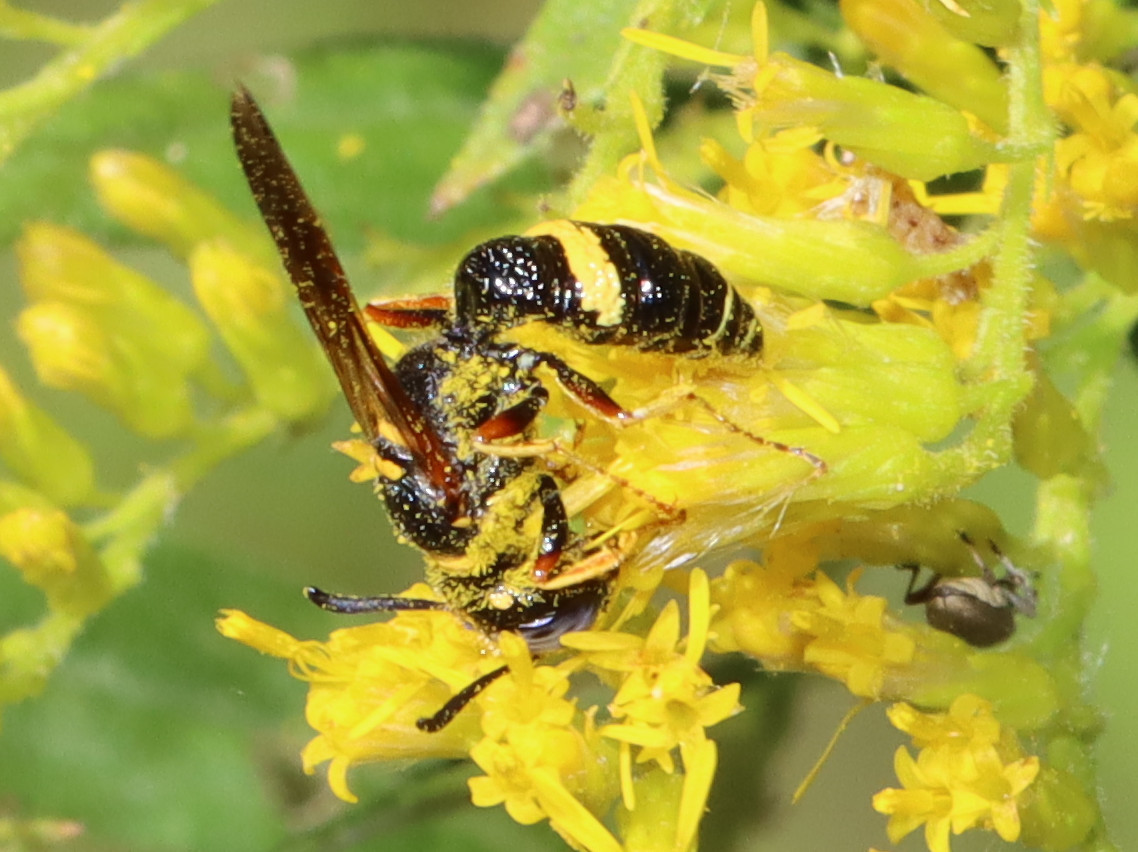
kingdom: Animalia
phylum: Arthropoda
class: Insecta
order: Hymenoptera
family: Crabronidae
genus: Philanthus
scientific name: Philanthus gibbosus
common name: Humped beewolf
